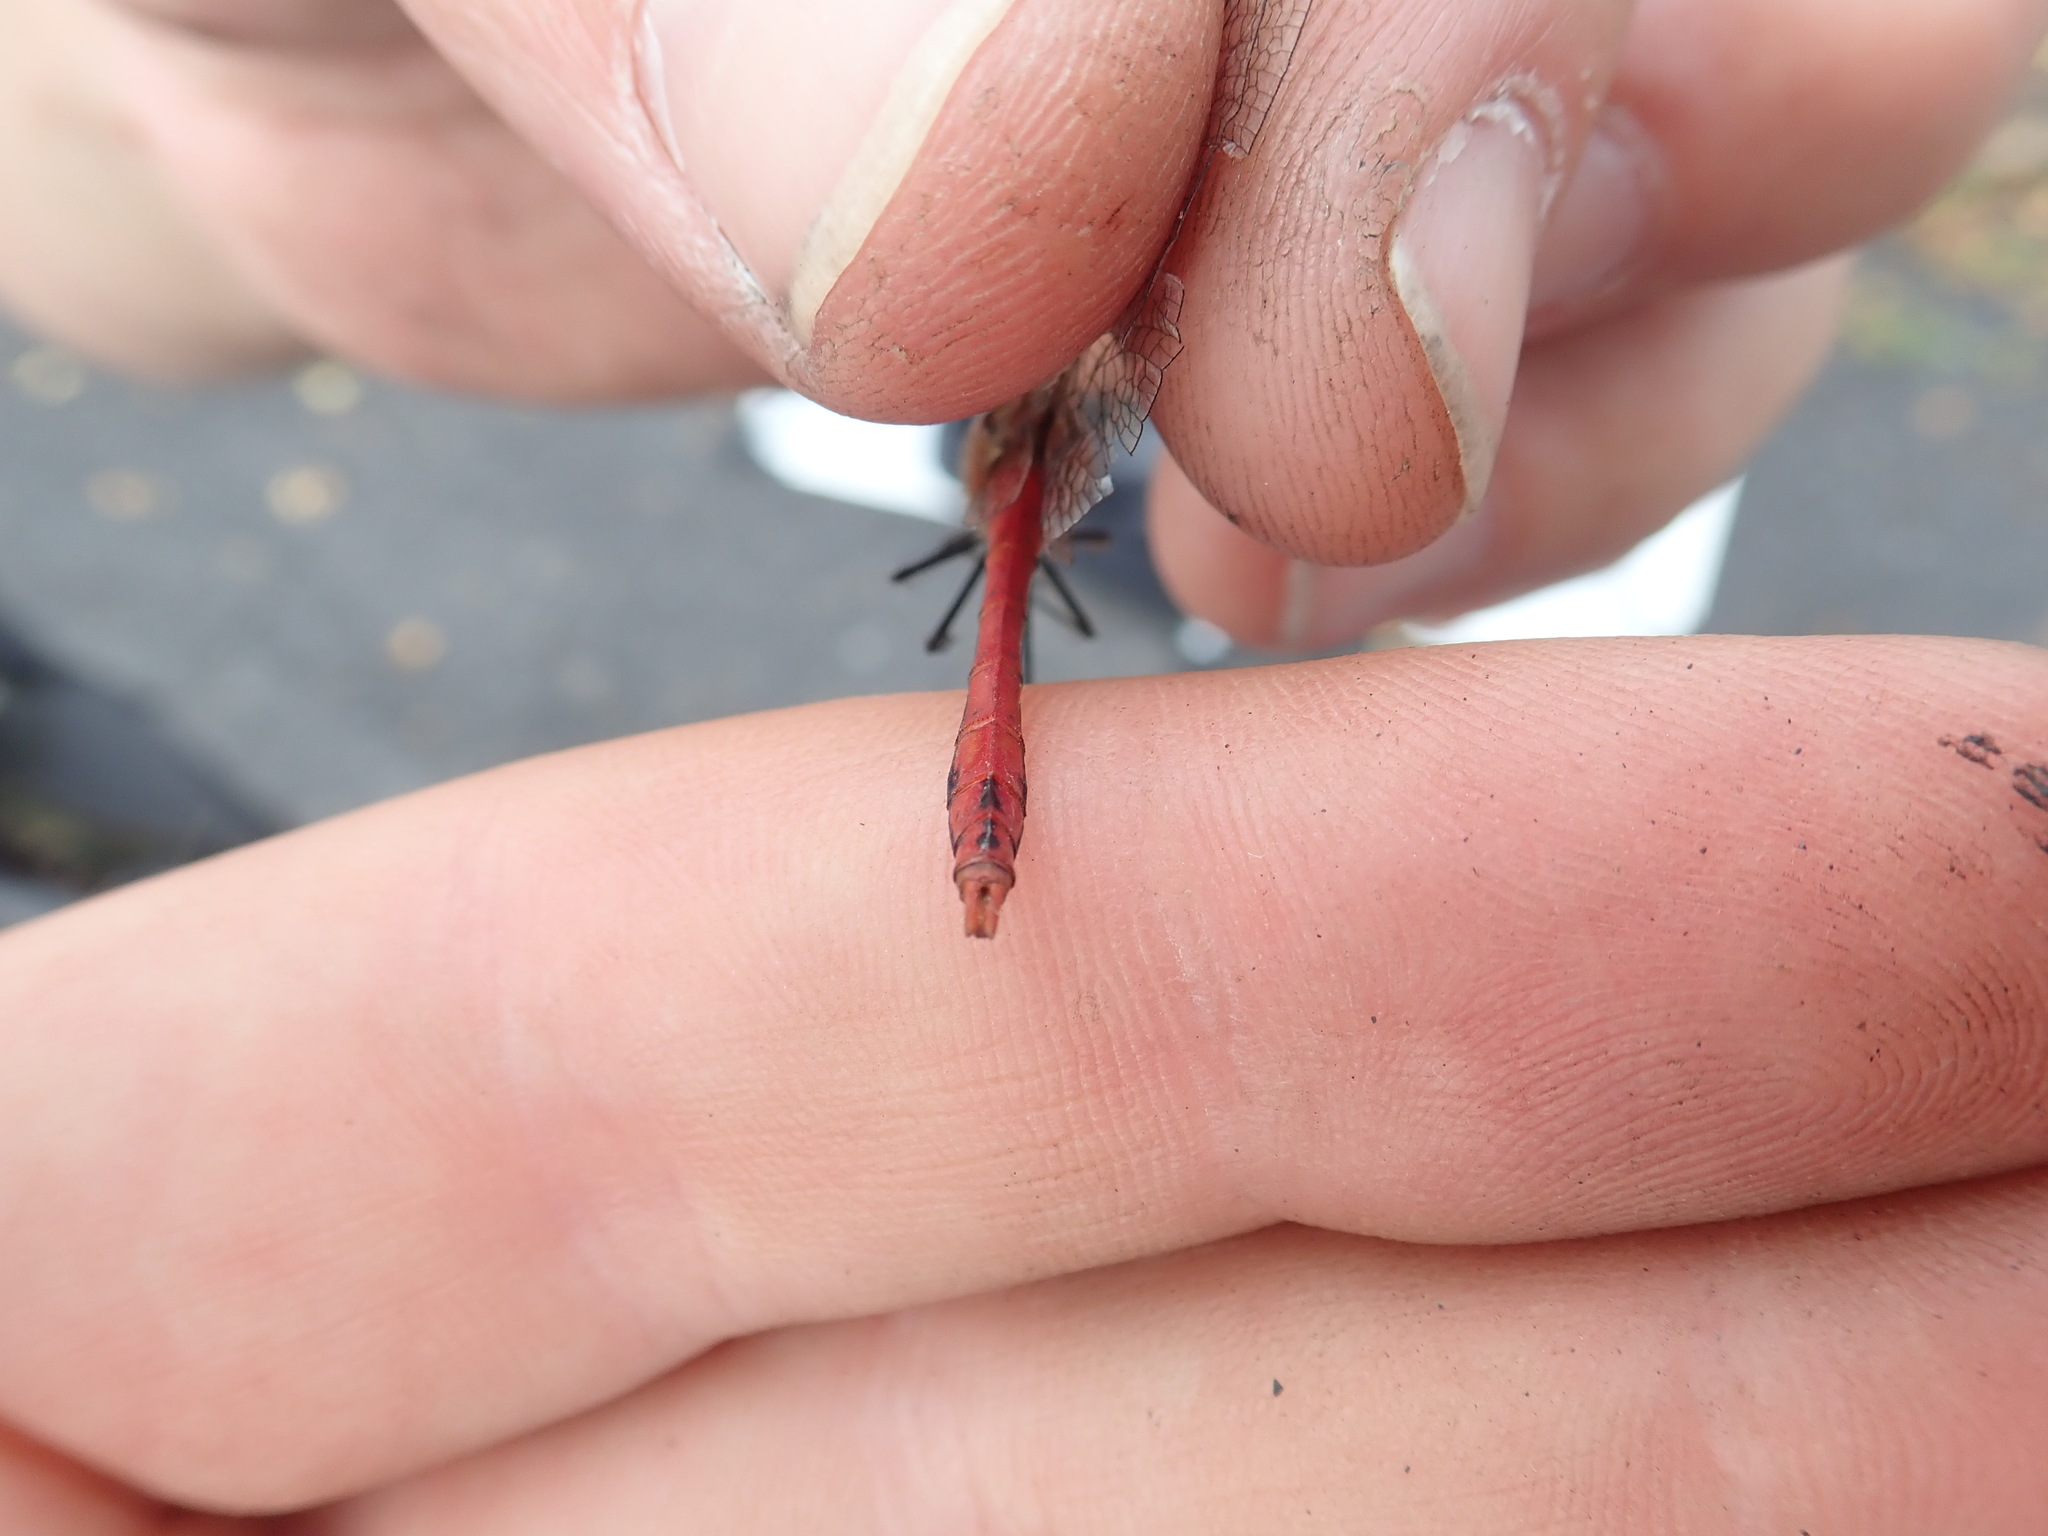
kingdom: Animalia
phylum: Arthropoda
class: Insecta
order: Odonata
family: Libellulidae
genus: Sympetrum
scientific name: Sympetrum sanguineum
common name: Ruddy darter
